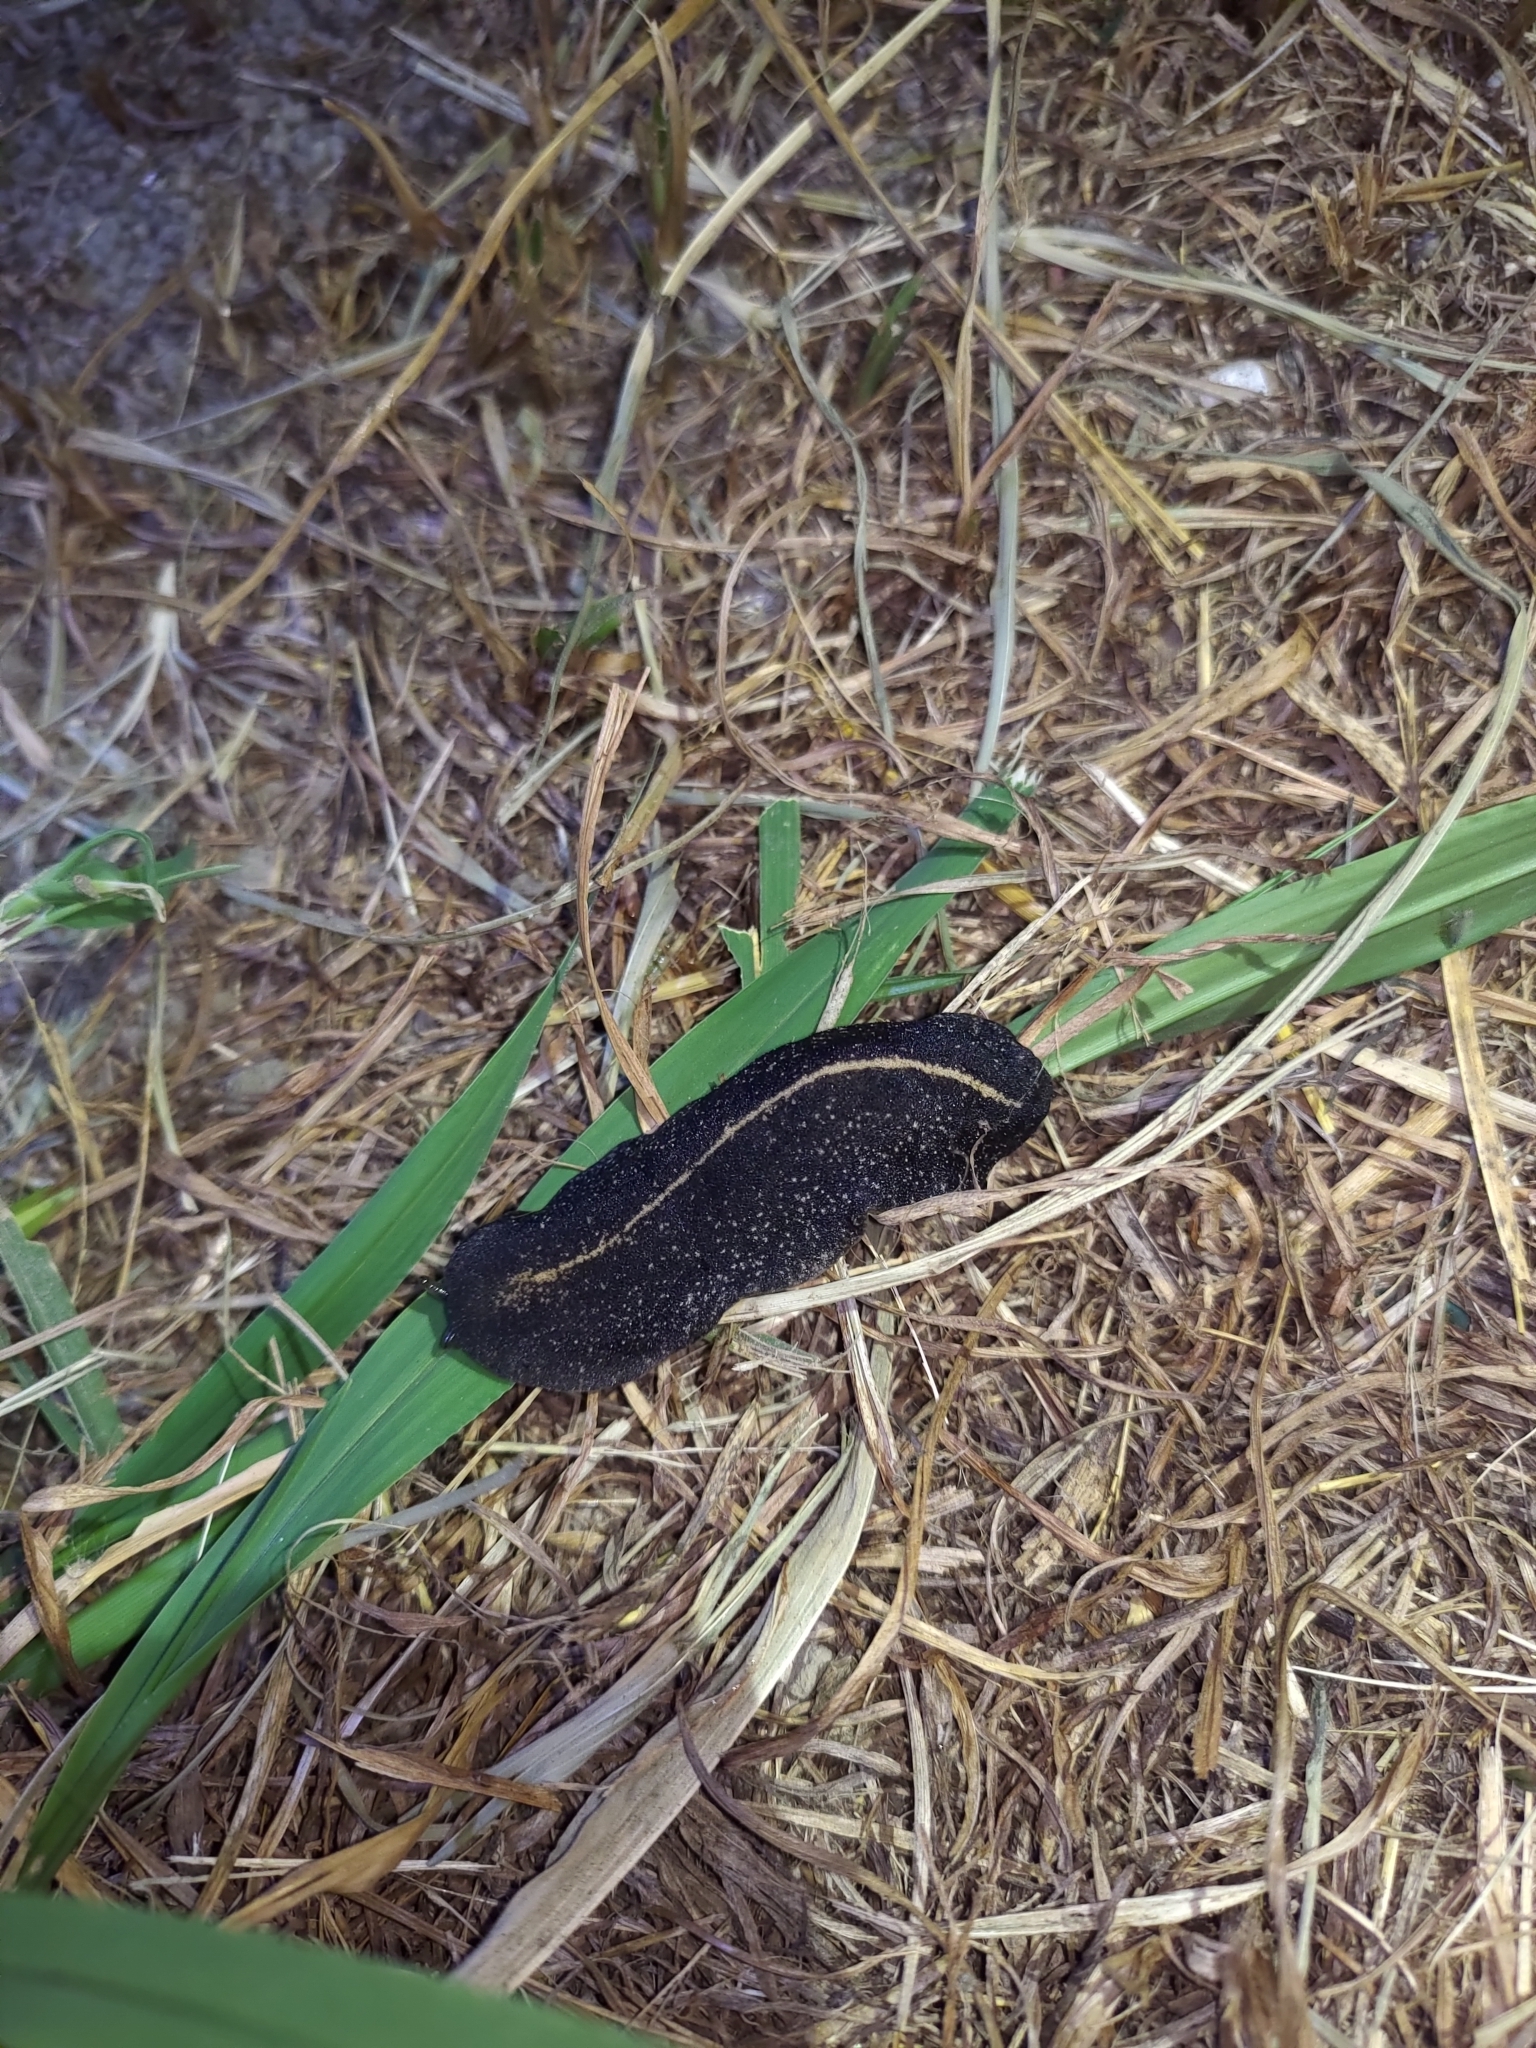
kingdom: Animalia
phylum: Mollusca
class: Gastropoda
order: Systellommatophora
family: Veronicellidae
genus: Laevicaulis
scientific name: Laevicaulis alte
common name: Tropical leatherleaf
